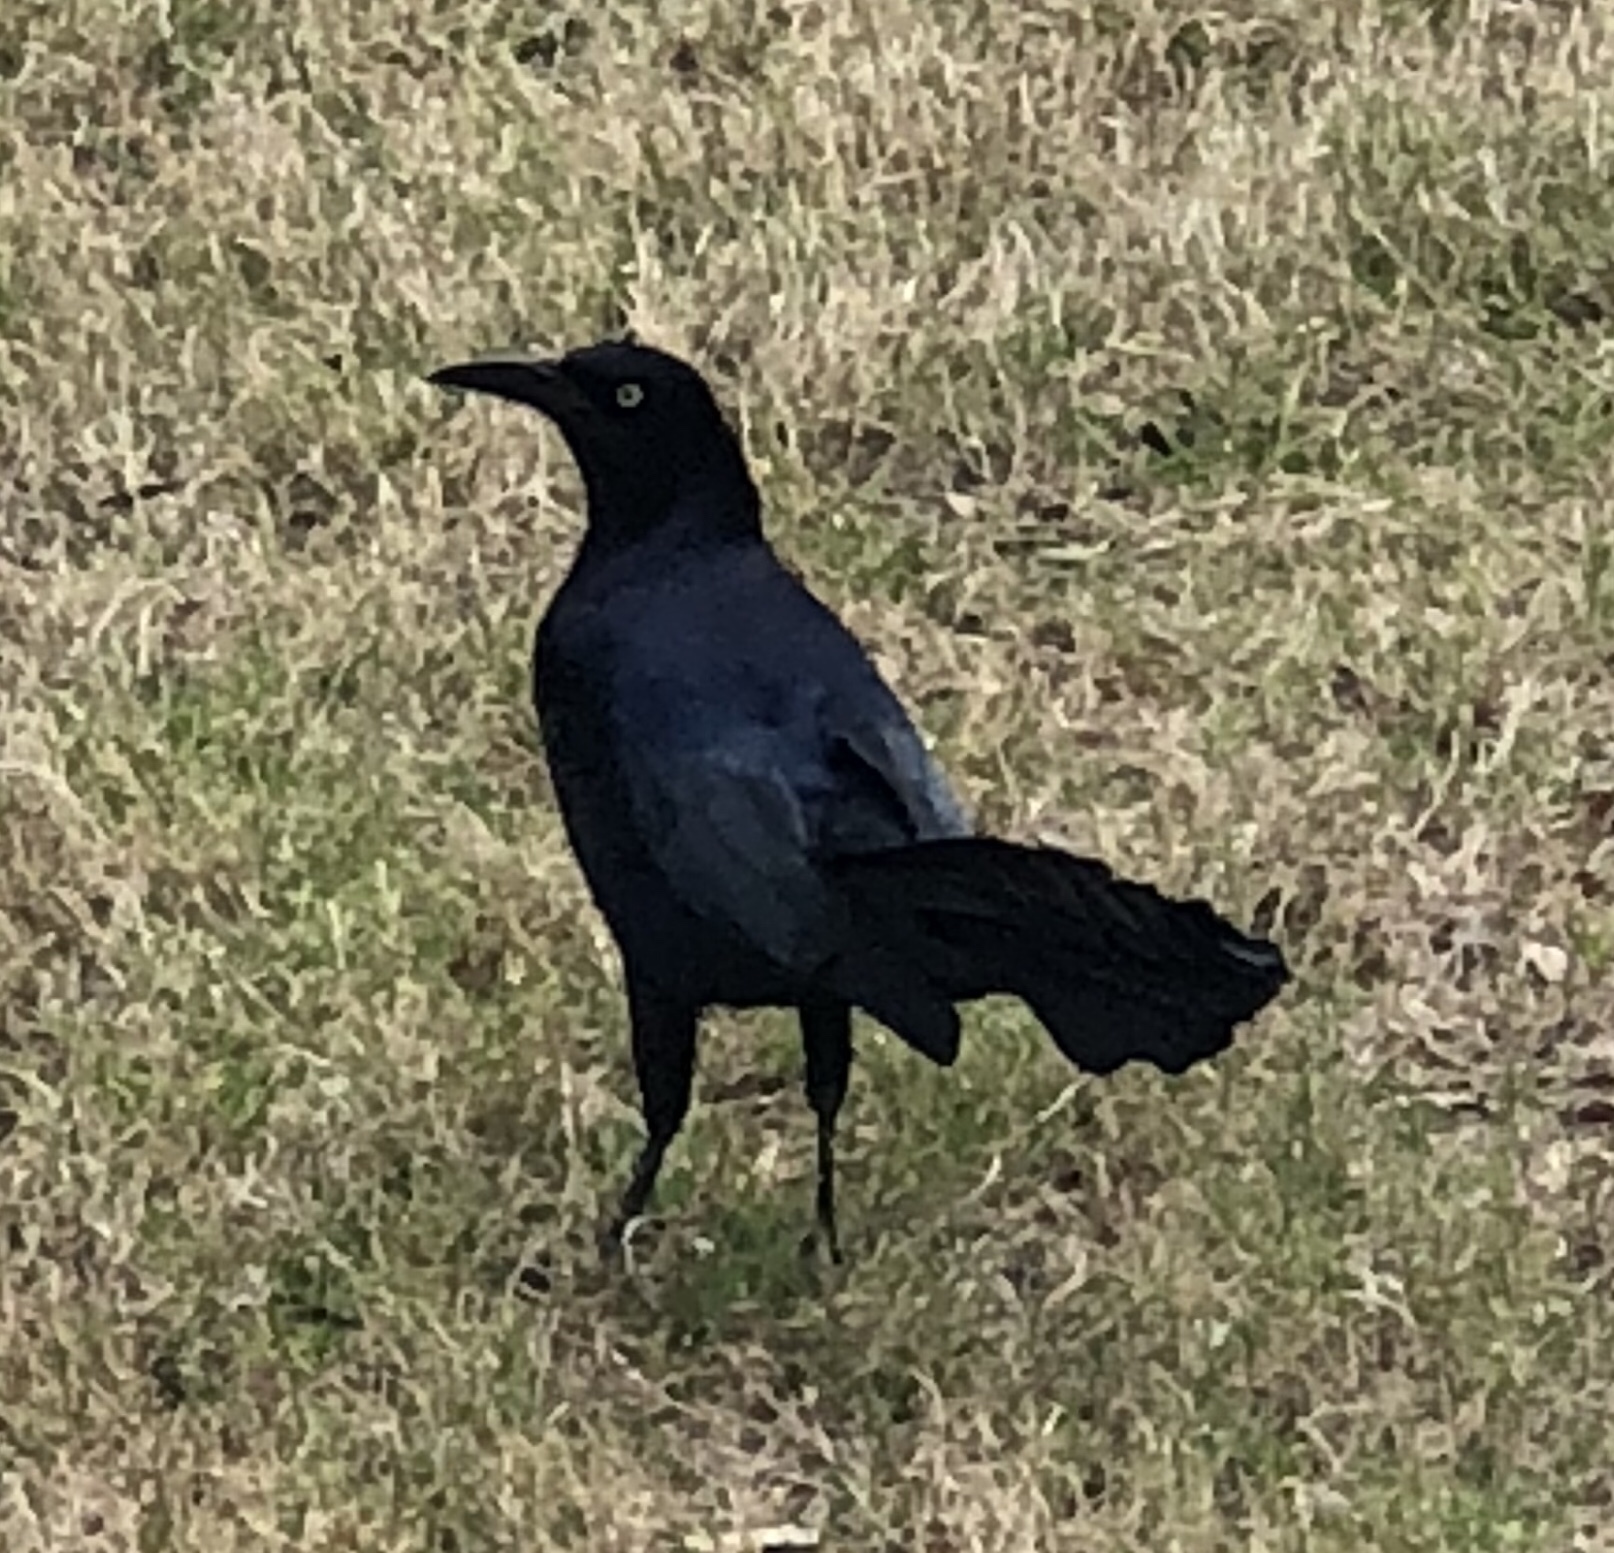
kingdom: Animalia
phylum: Chordata
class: Aves
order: Passeriformes
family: Icteridae
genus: Quiscalus
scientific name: Quiscalus mexicanus
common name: Great-tailed grackle
